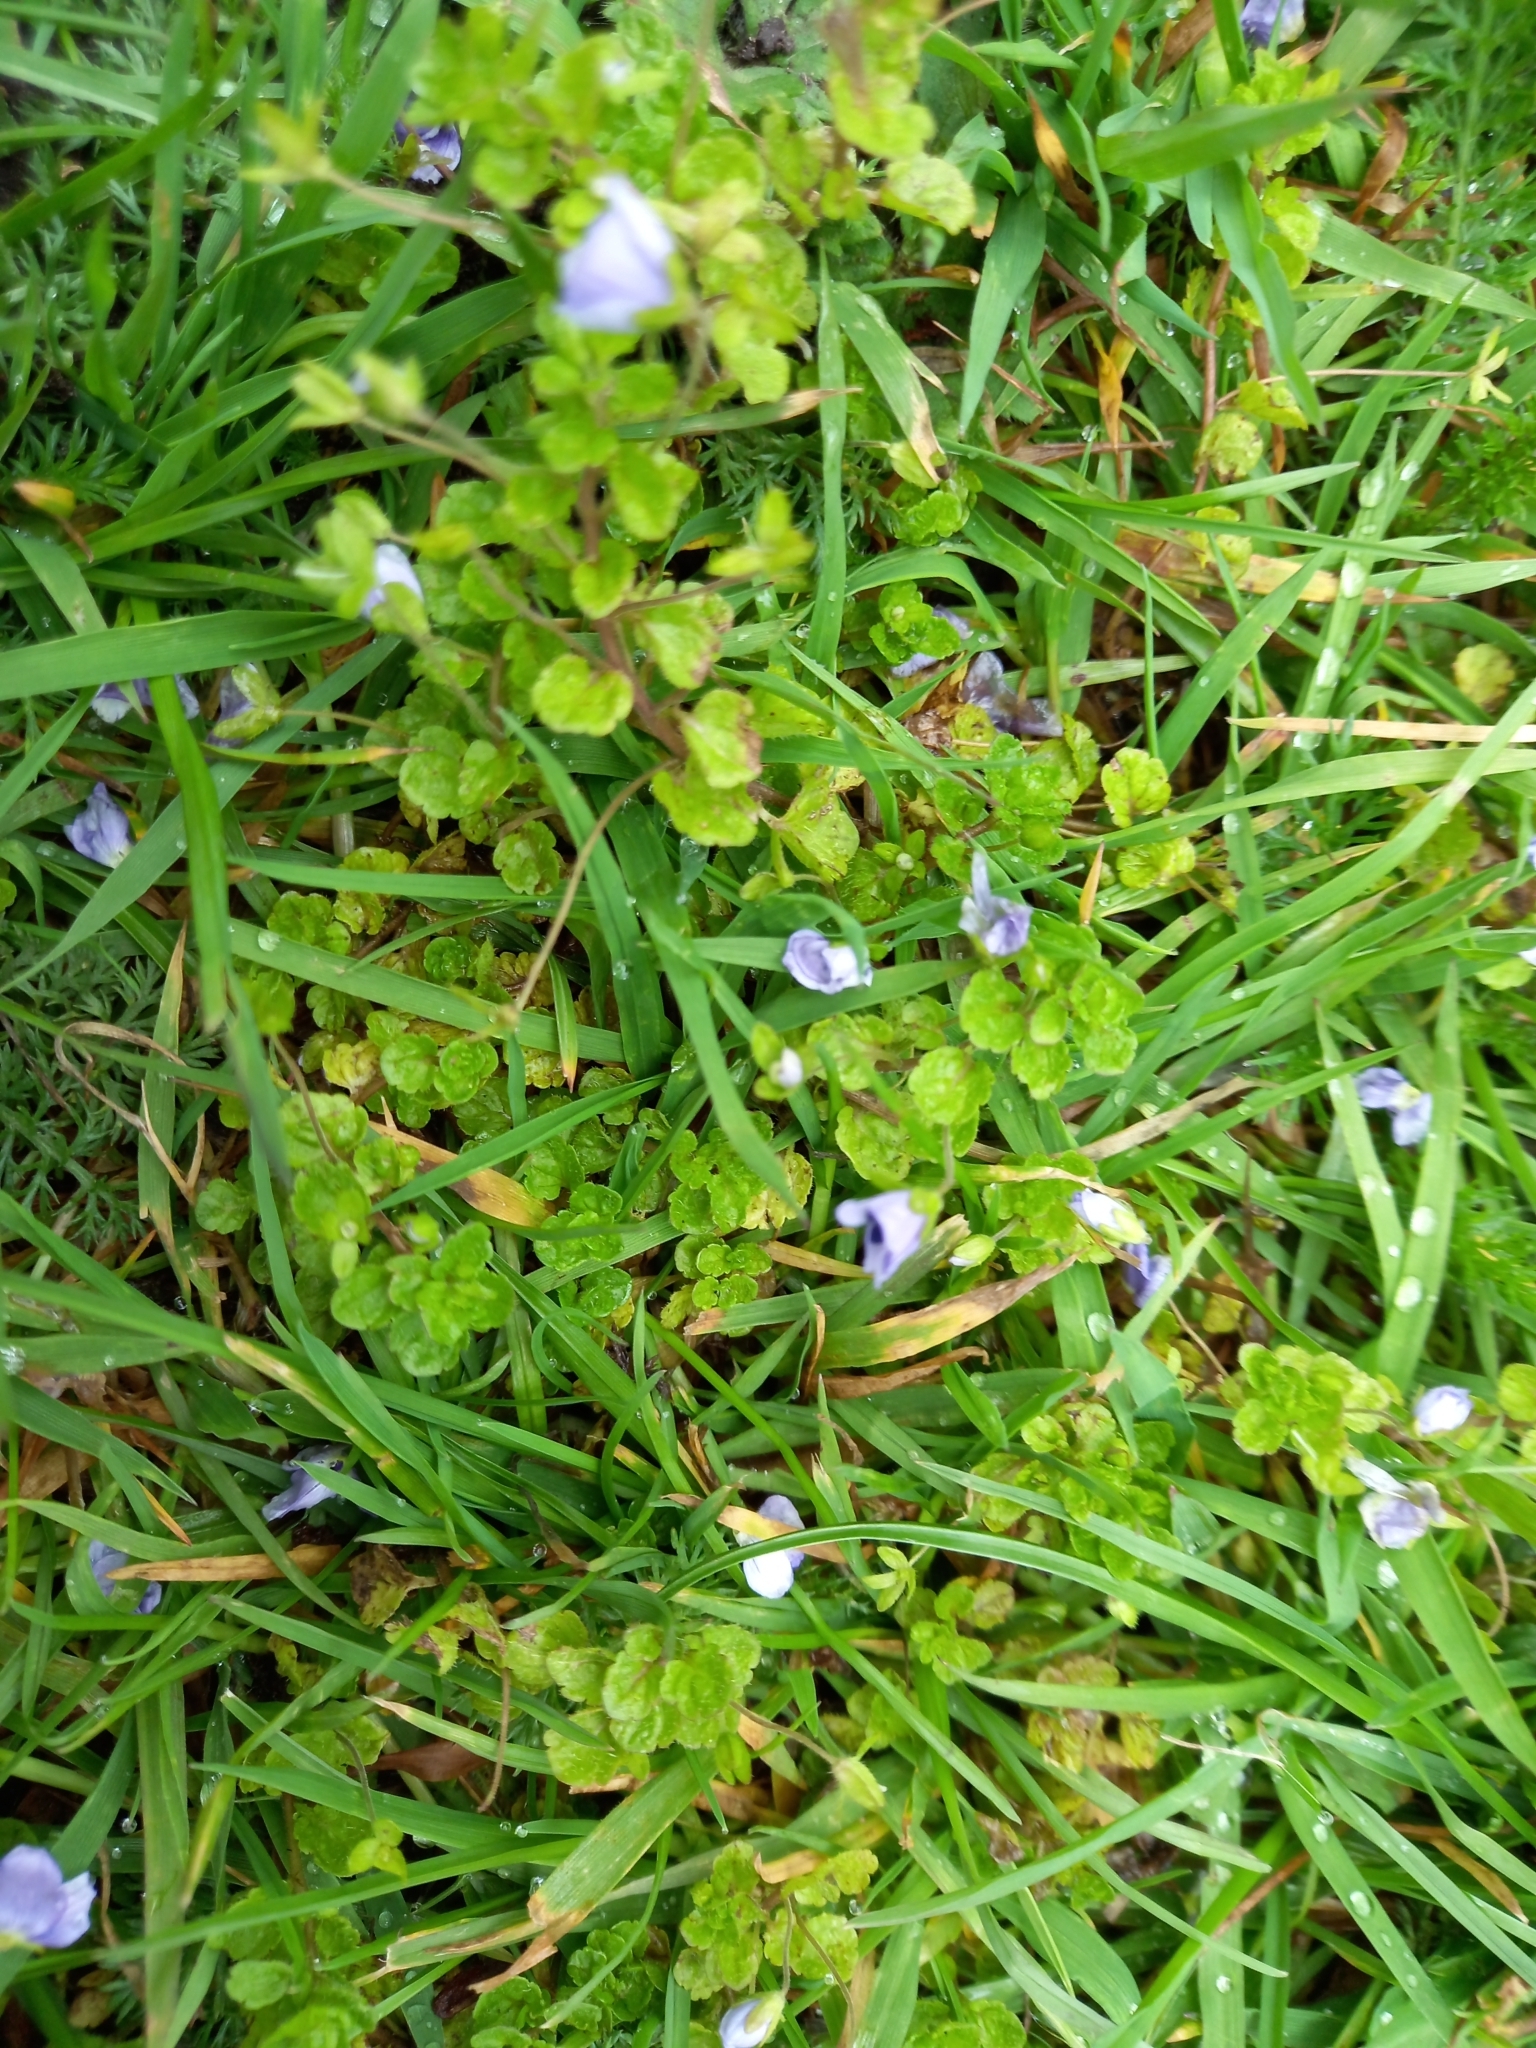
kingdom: Plantae
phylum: Tracheophyta
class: Magnoliopsida
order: Lamiales
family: Plantaginaceae
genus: Veronica
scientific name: Veronica filiformis
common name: Slender speedwell
